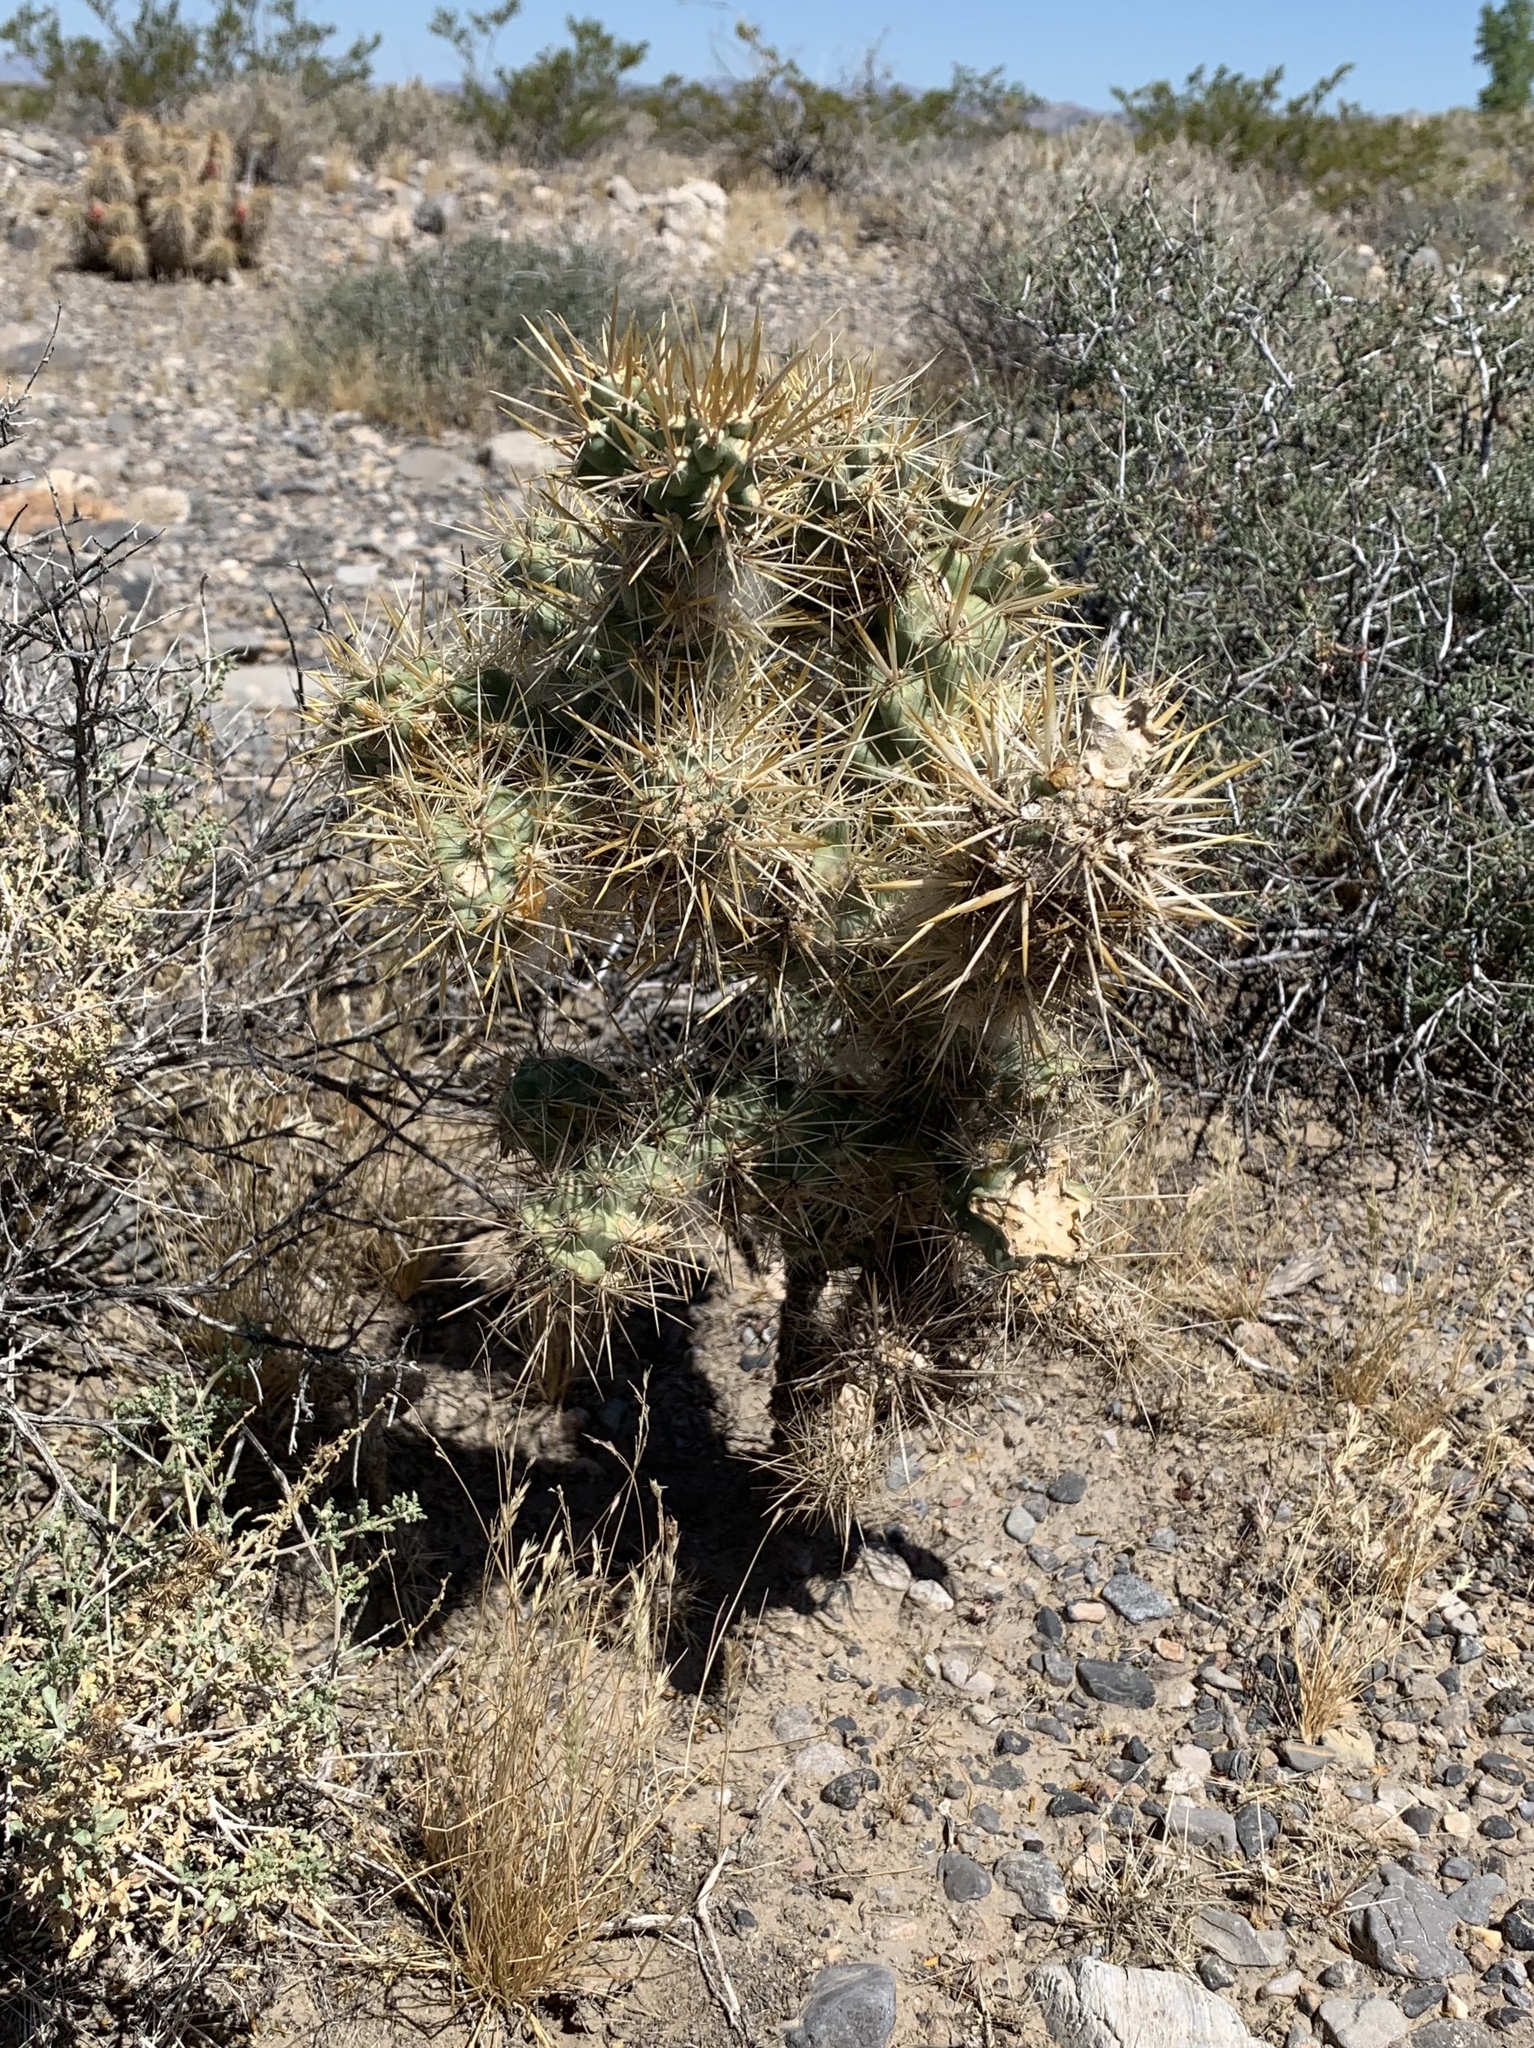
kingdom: Plantae
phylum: Tracheophyta
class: Magnoliopsida
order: Caryophyllales
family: Cactaceae
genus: Cylindropuntia
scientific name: Cylindropuntia echinocarpa
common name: Ground cholla
